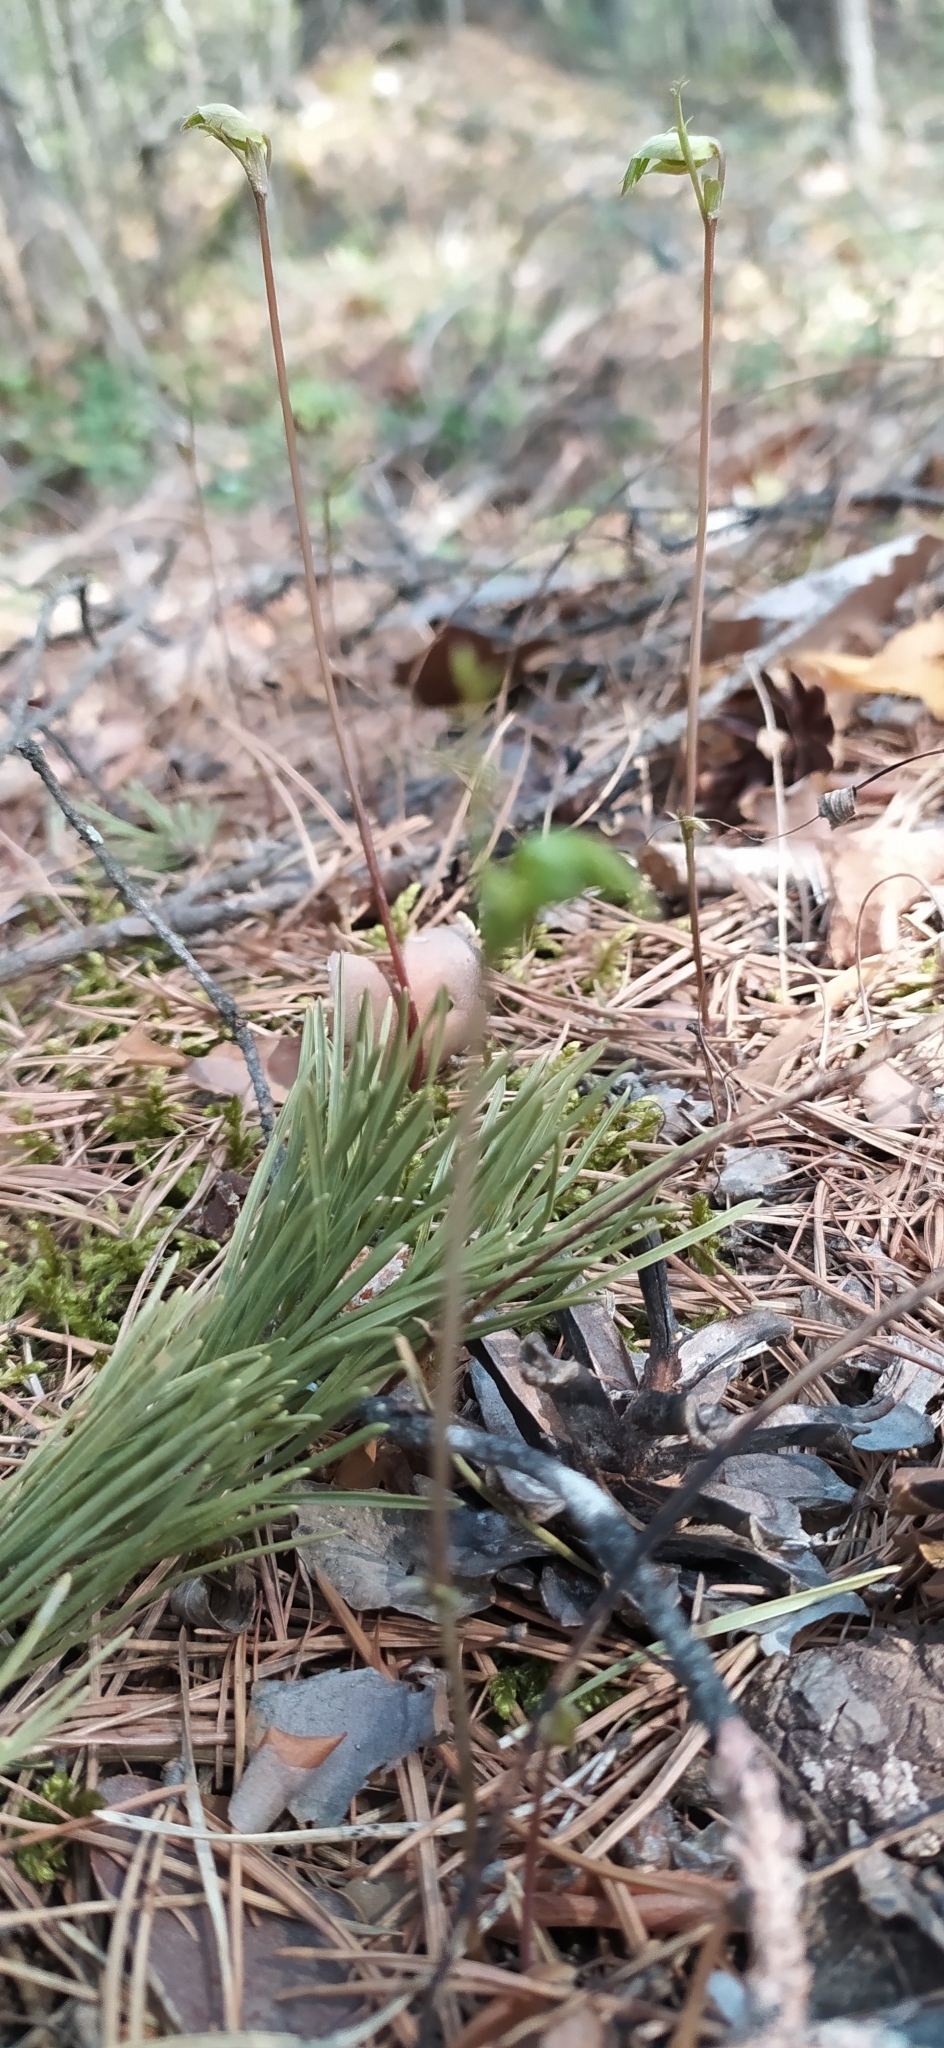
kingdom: Plantae
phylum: Tracheophyta
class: Magnoliopsida
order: Fabales
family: Fabaceae
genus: Lathyrus
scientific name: Lathyrus vernus
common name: Spring pea
